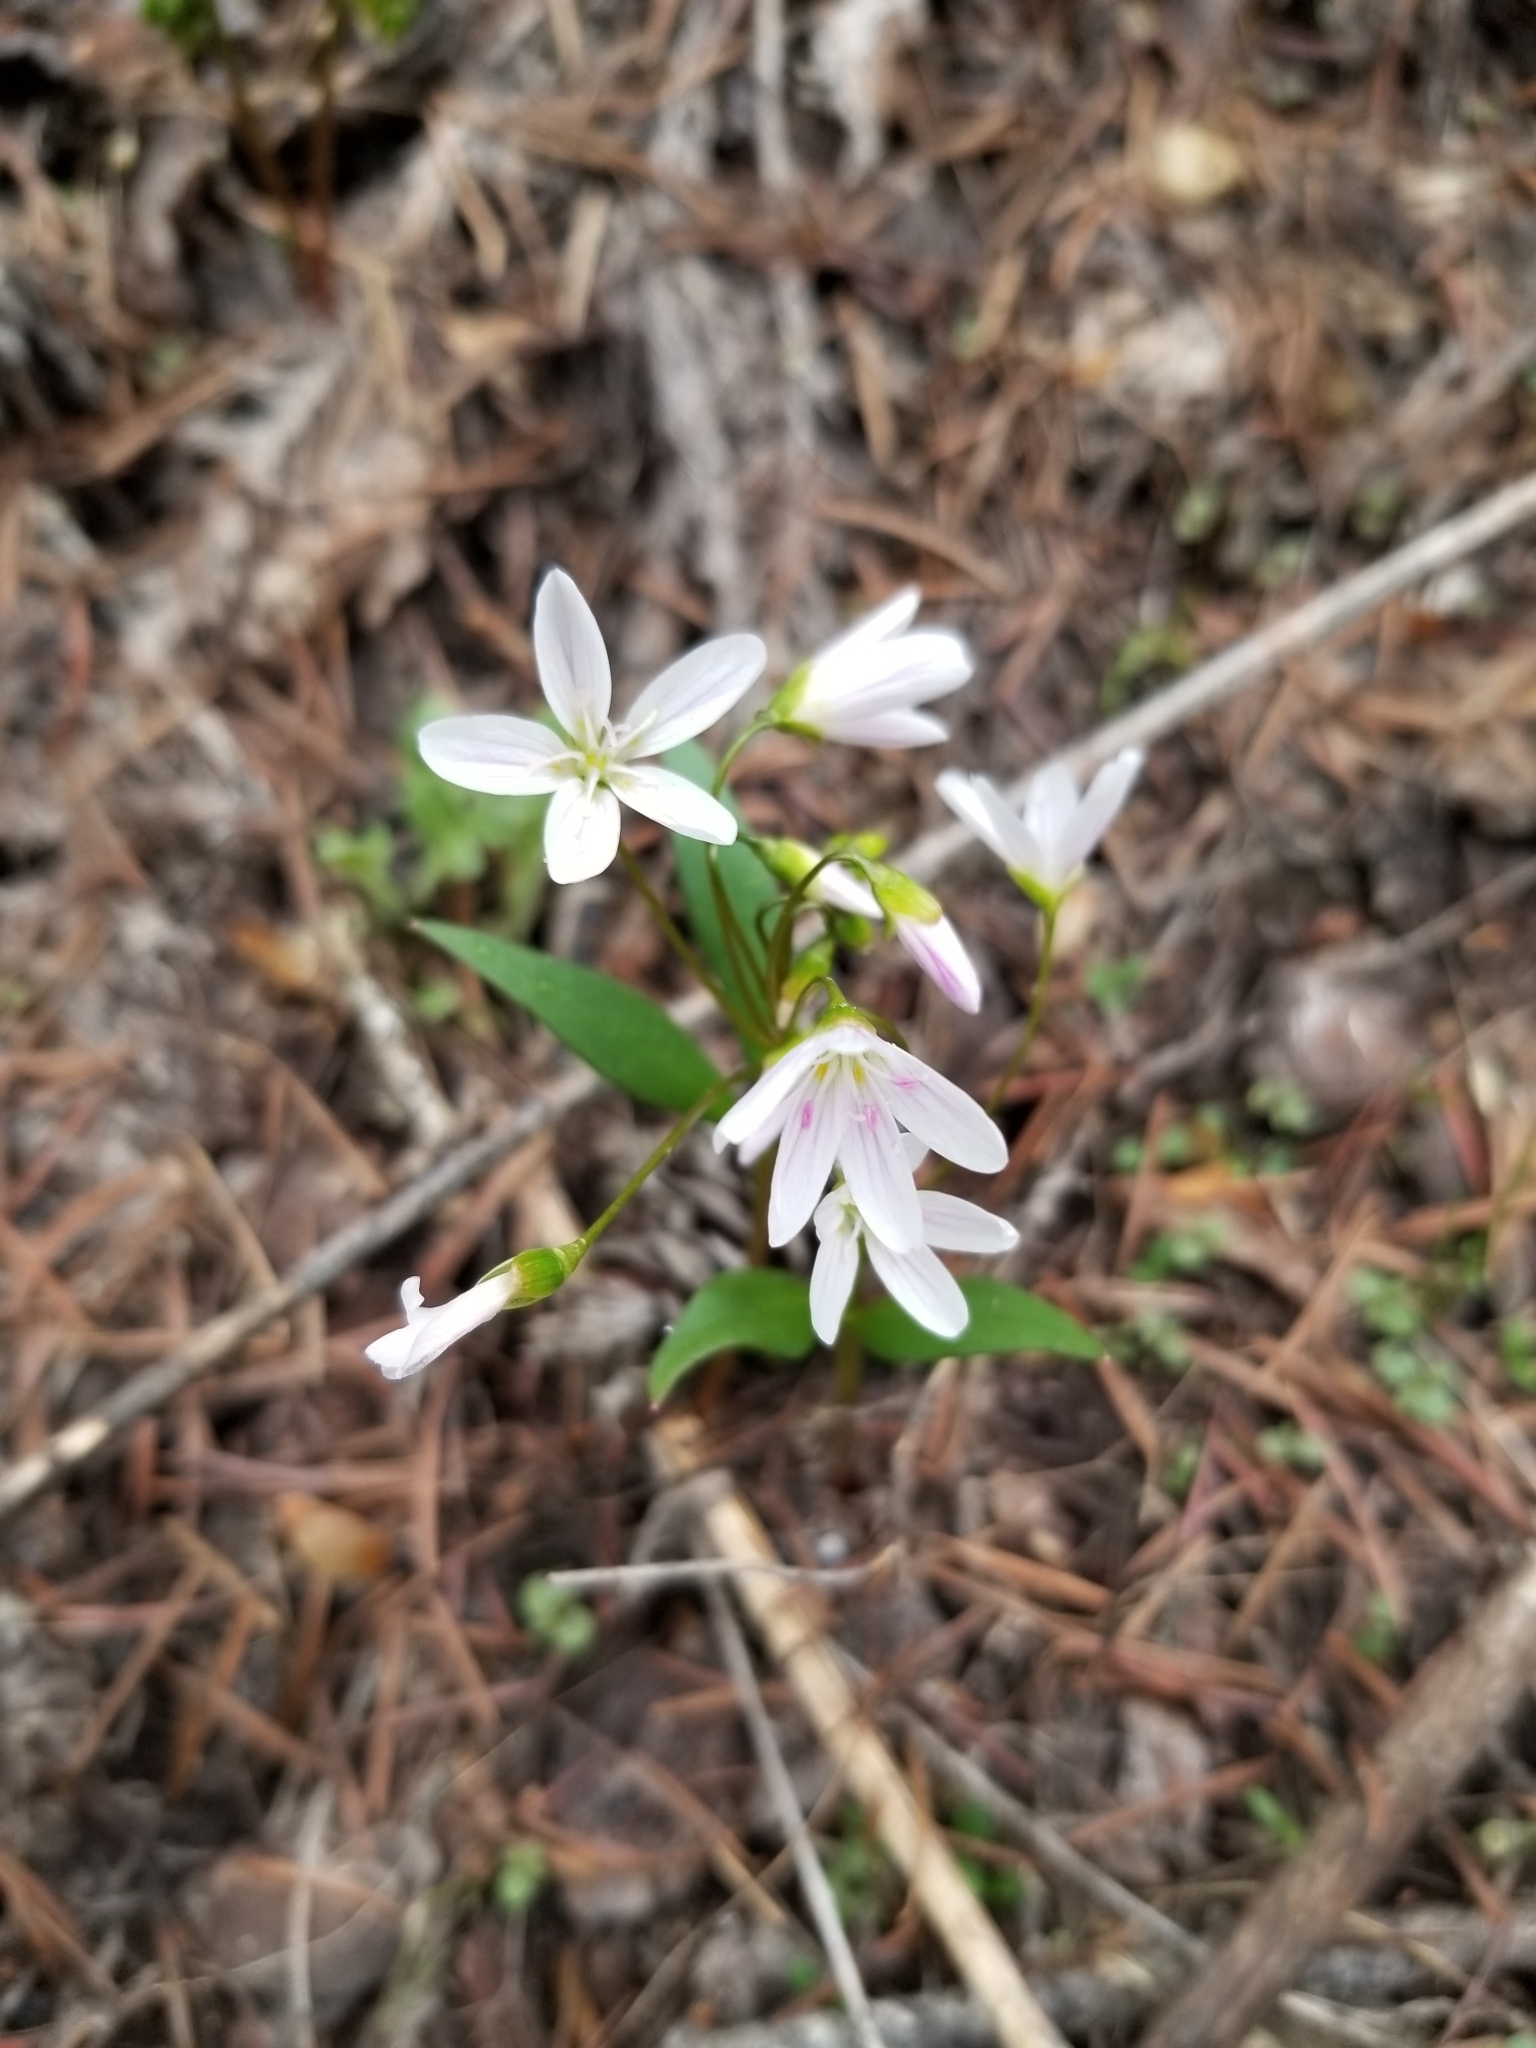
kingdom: Plantae
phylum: Tracheophyta
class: Magnoliopsida
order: Caryophyllales
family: Montiaceae
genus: Claytonia
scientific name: Claytonia lanceolata
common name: Western spring-beauty
